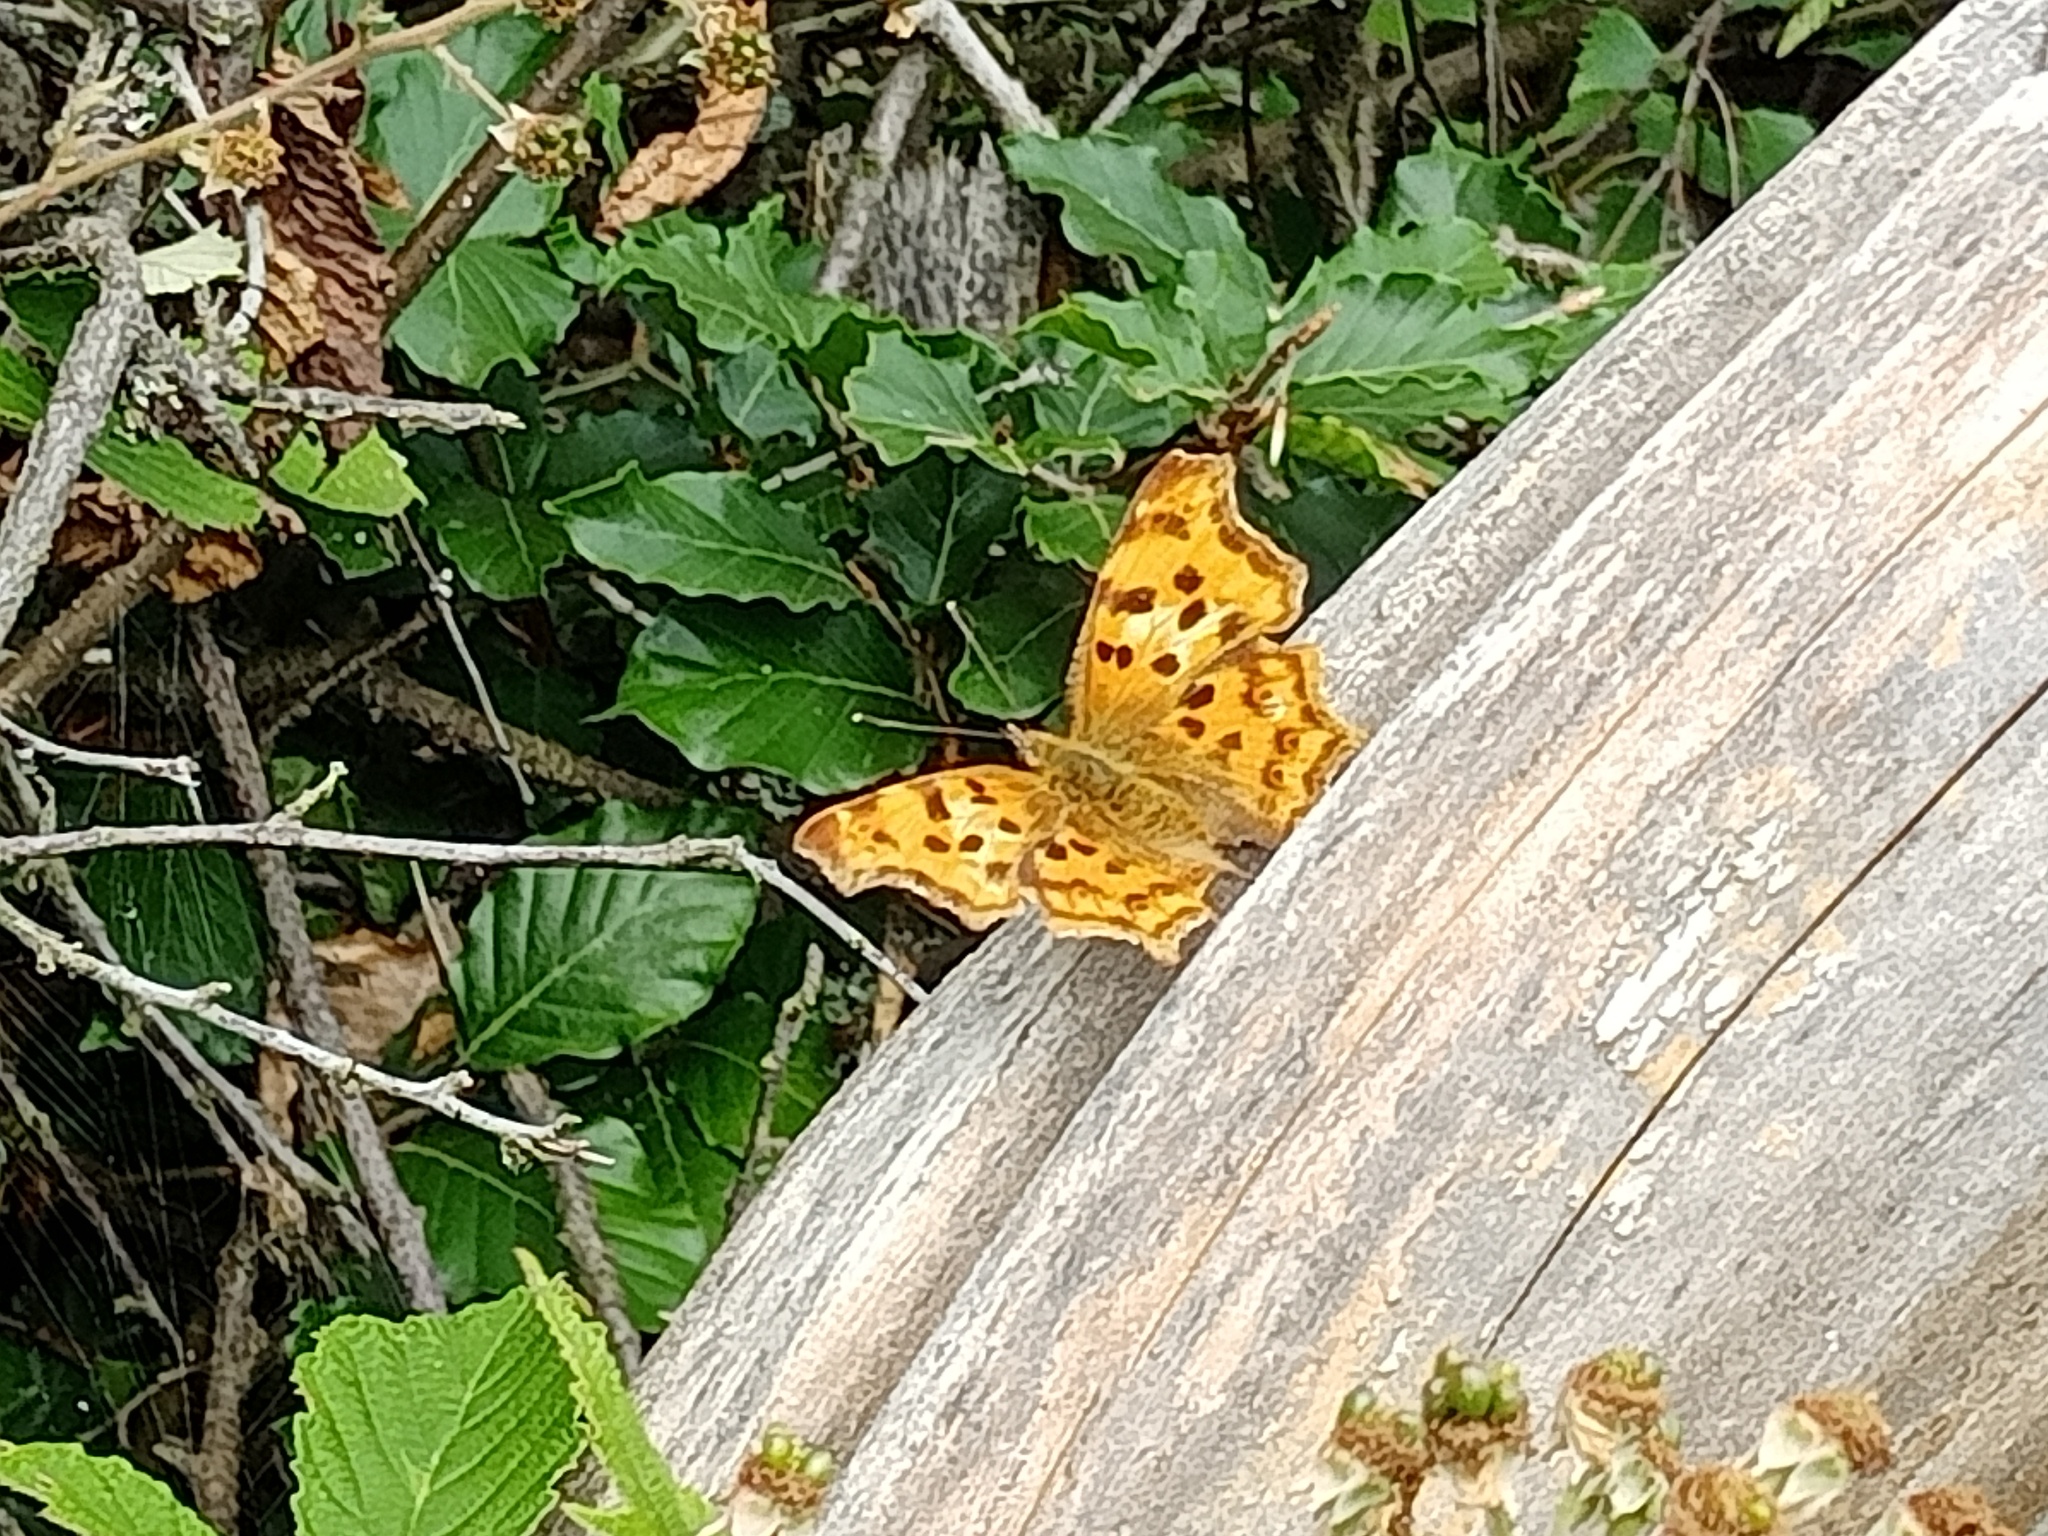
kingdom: Animalia
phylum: Arthropoda
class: Insecta
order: Lepidoptera
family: Nymphalidae
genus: Polygonia
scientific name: Polygonia c-album
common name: Comma
